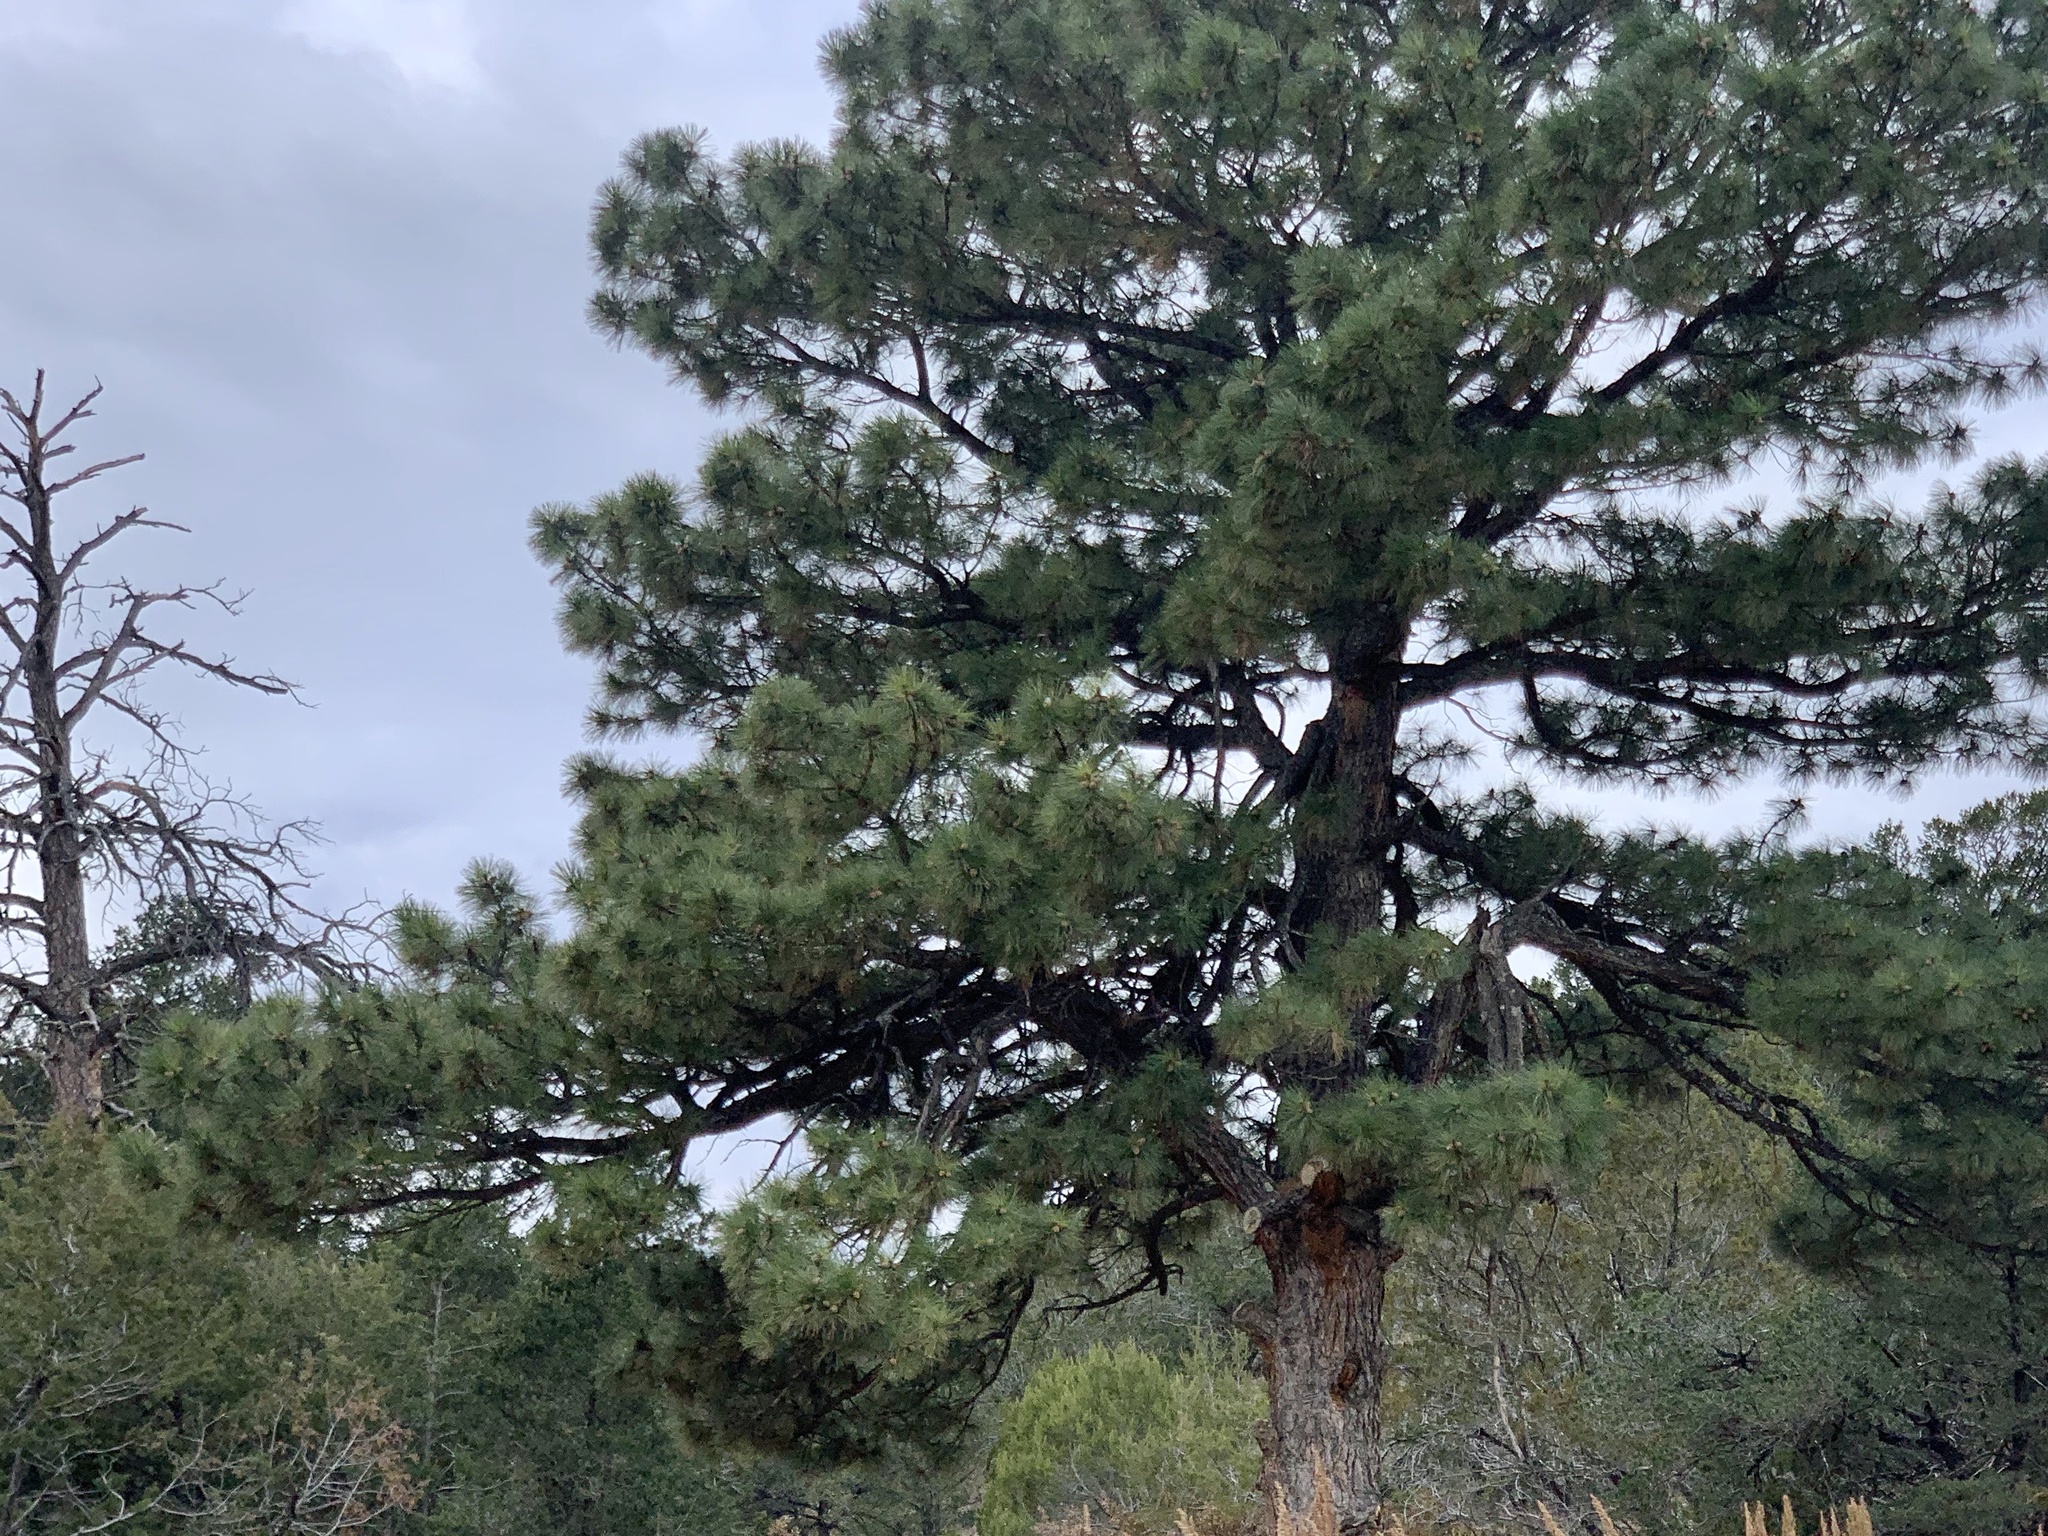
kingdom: Plantae
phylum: Tracheophyta
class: Pinopsida
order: Pinales
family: Pinaceae
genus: Pinus
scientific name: Pinus ponderosa
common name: Western yellow-pine
